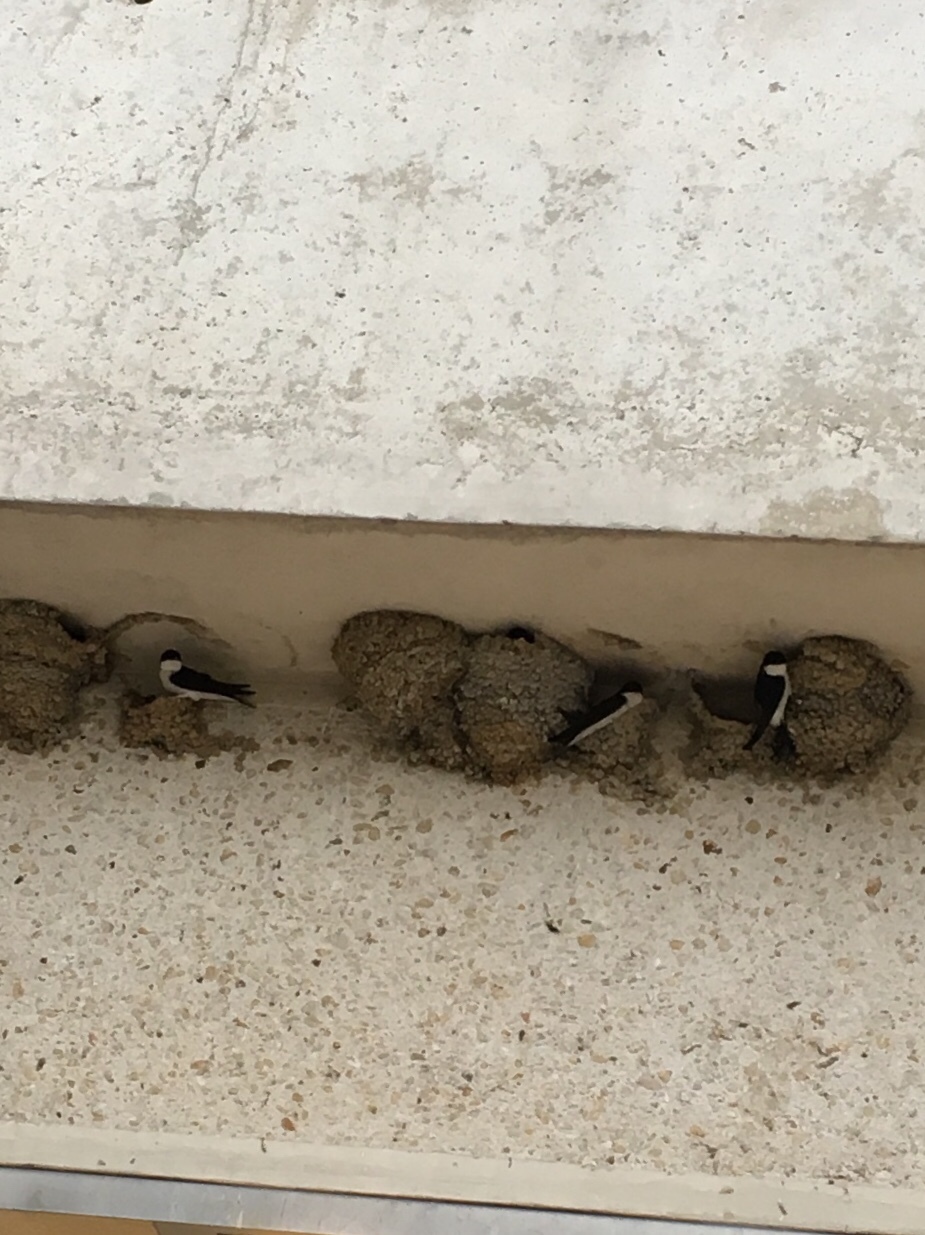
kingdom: Animalia
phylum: Chordata
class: Aves
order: Passeriformes
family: Hirundinidae
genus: Delichon
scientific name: Delichon urbicum
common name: Common house martin
